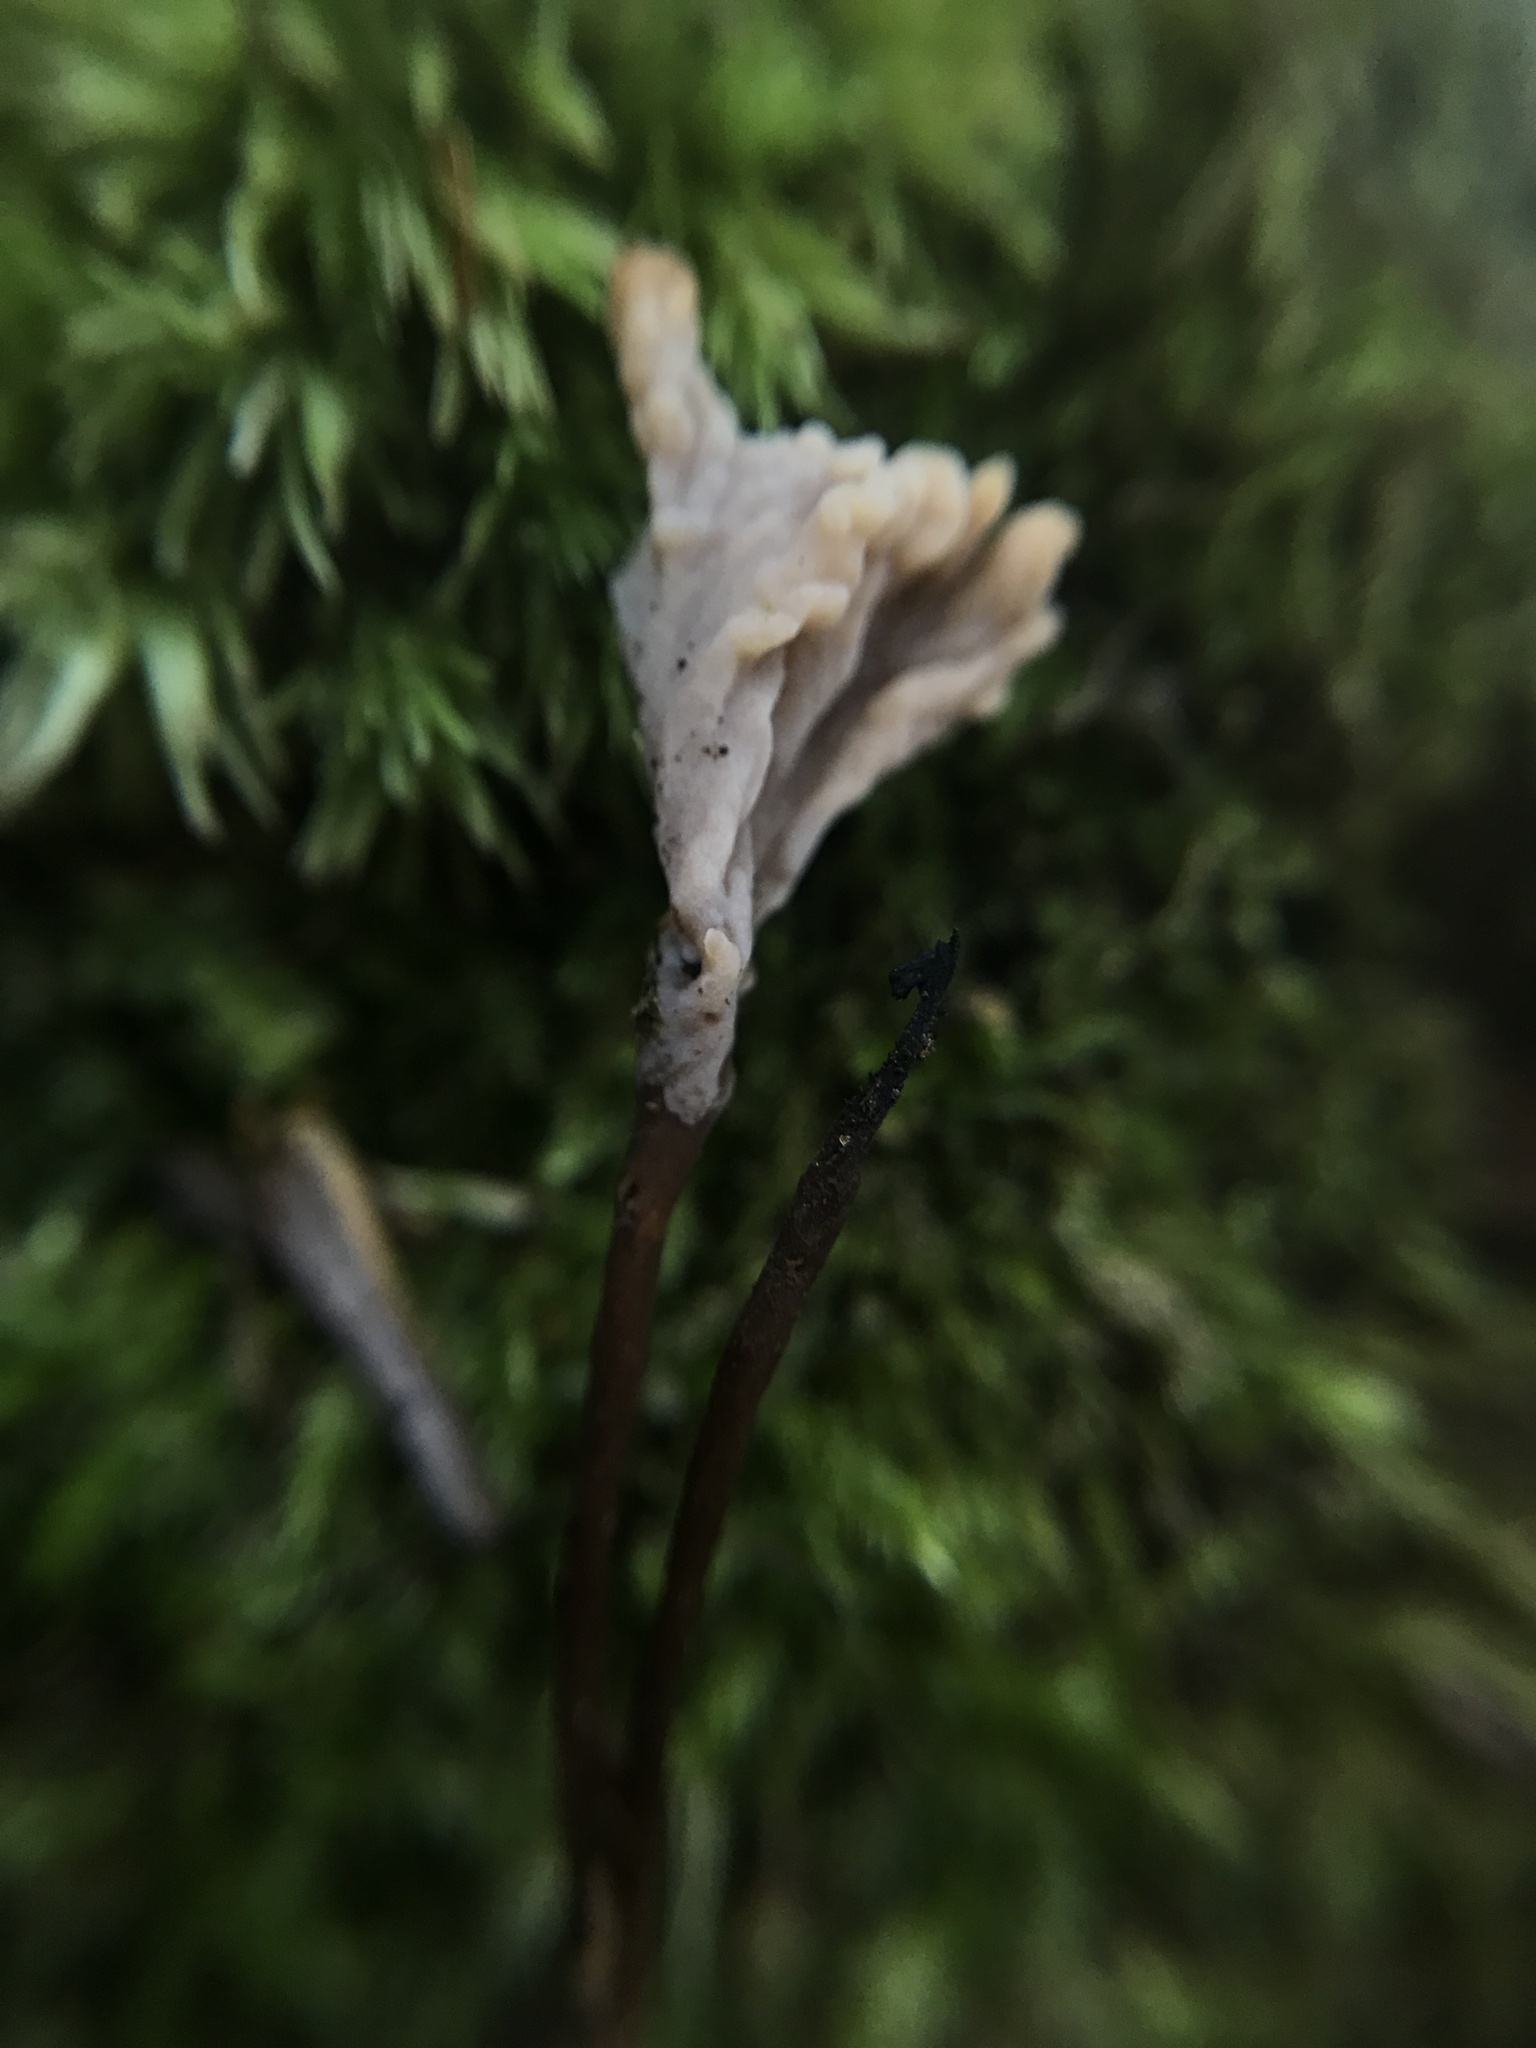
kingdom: Fungi
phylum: Basidiomycota
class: Agaricomycetes
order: Cantharellales
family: Hydnaceae
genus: Clavulina
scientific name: Clavulina castaneipes
